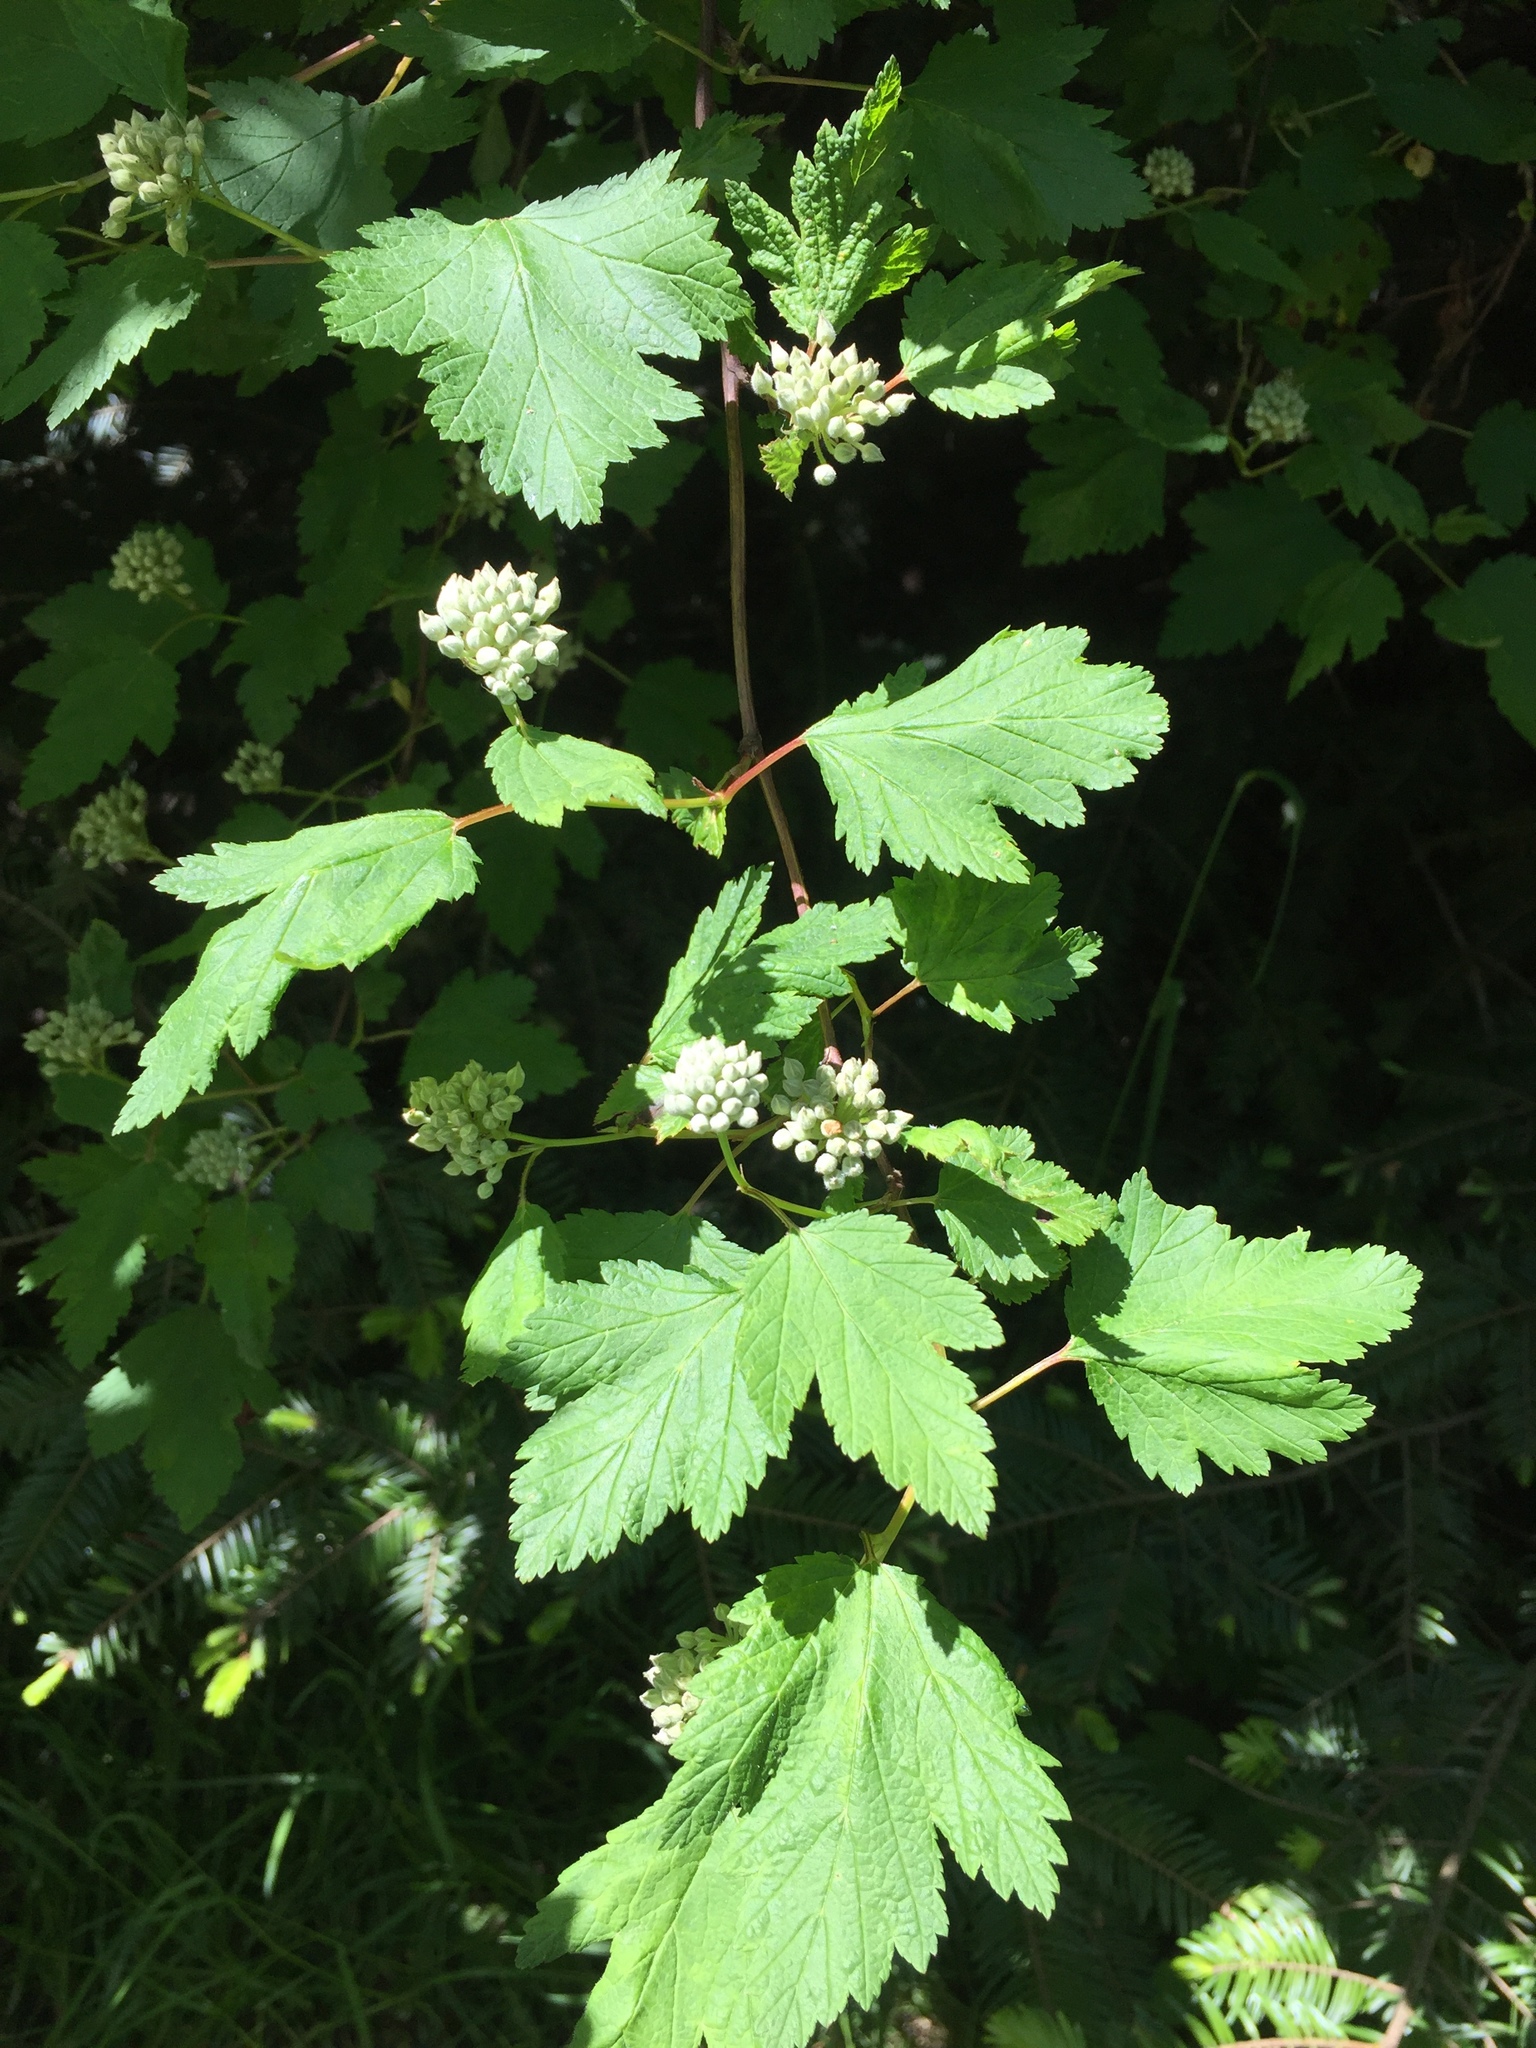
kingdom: Plantae
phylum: Tracheophyta
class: Magnoliopsida
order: Rosales
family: Rosaceae
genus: Physocarpus
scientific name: Physocarpus capitatus
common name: Pacific ninebark
